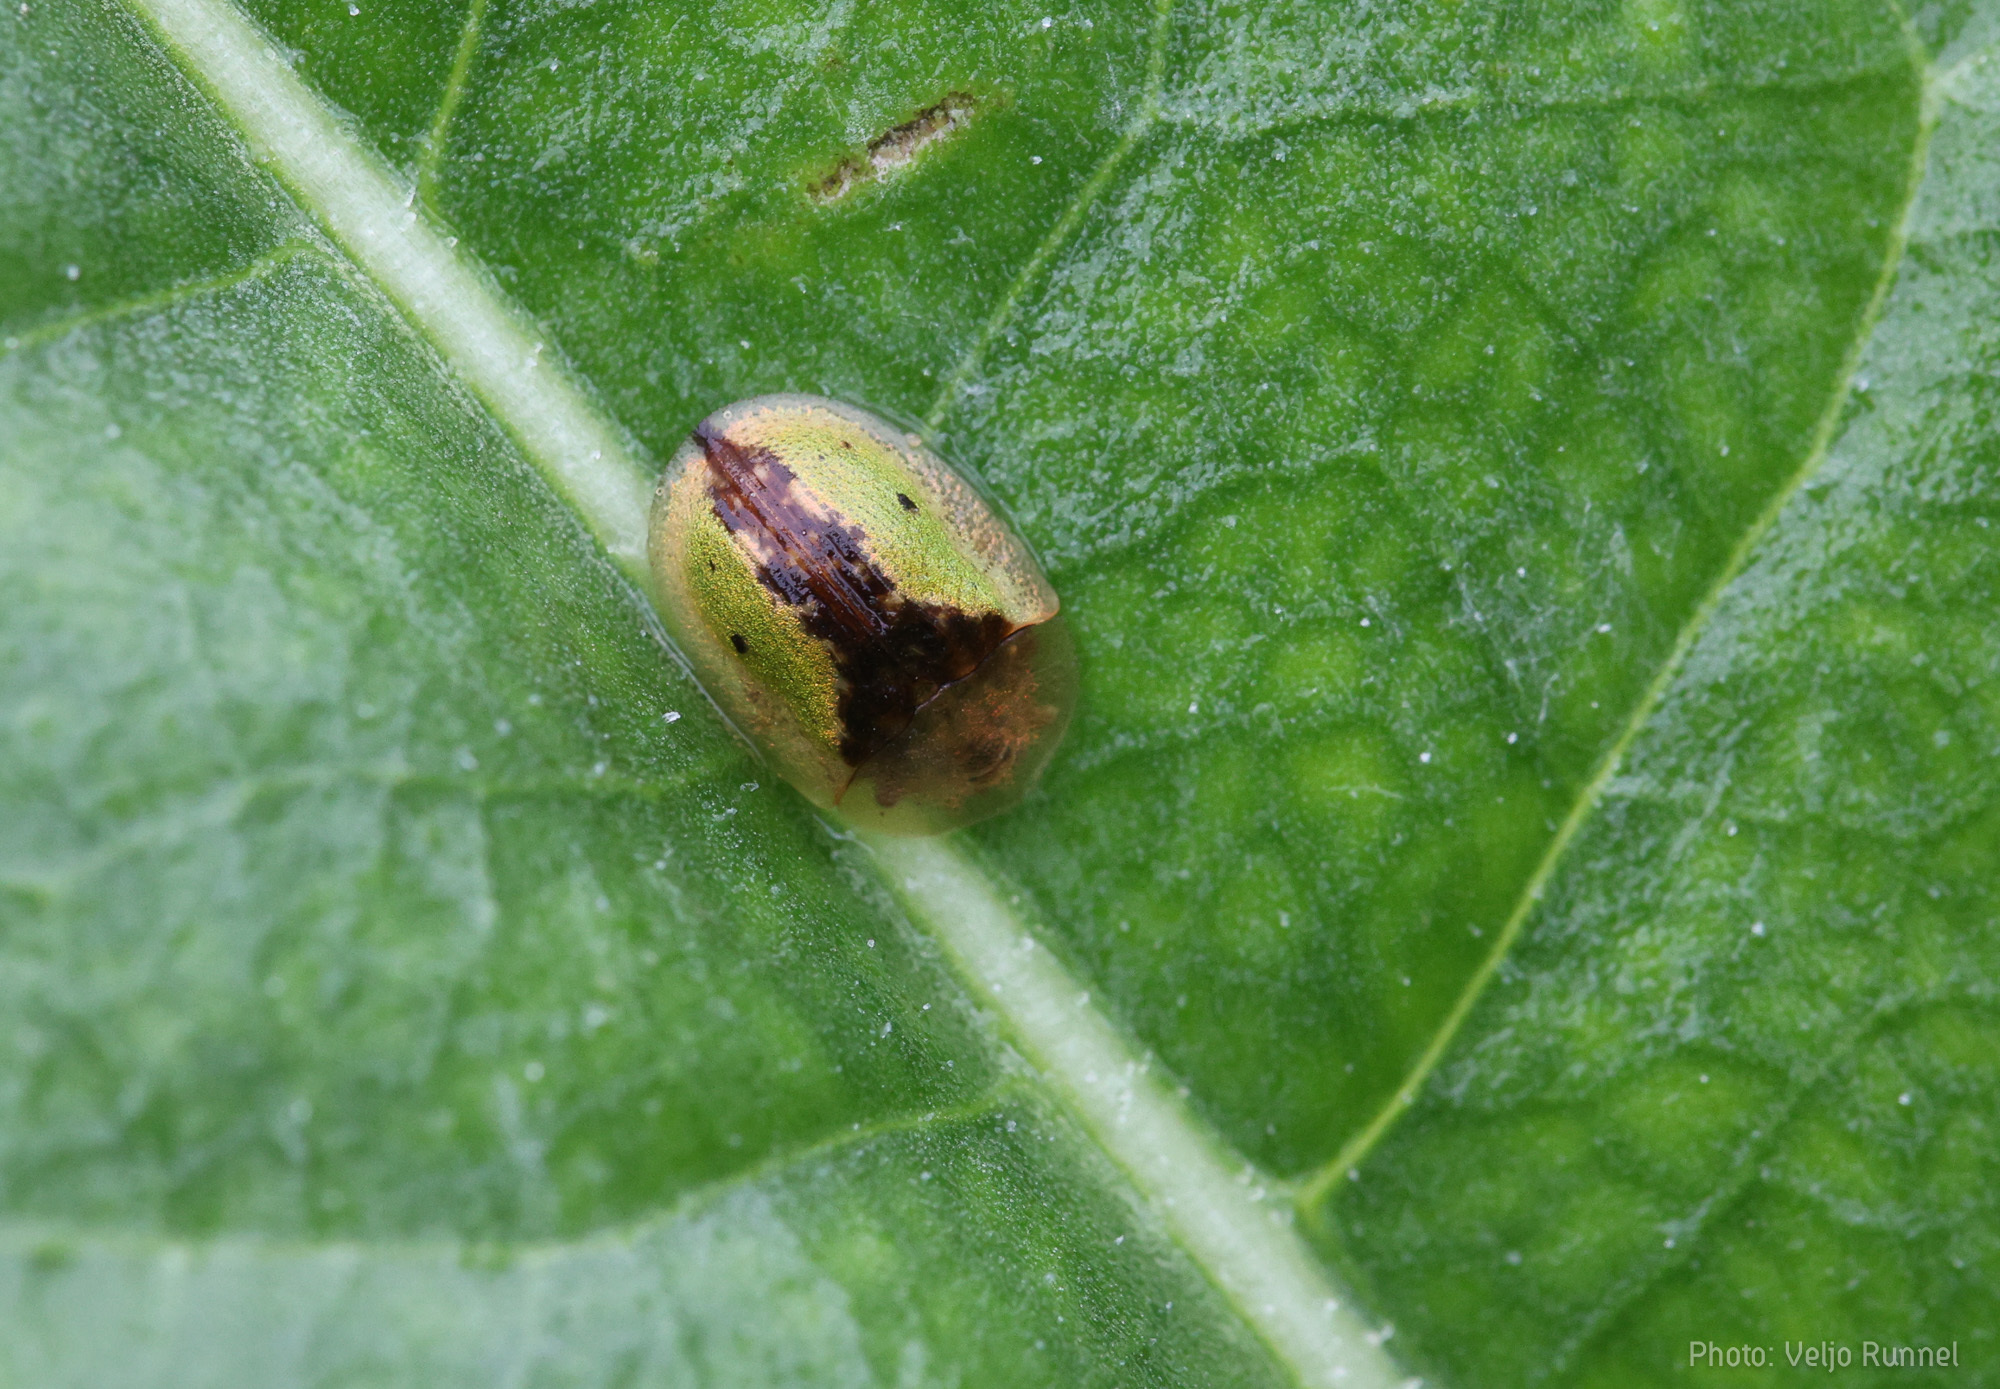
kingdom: Animalia
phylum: Arthropoda
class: Insecta
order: Coleoptera
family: Chrysomelidae
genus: Cassida
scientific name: Cassida vibex
